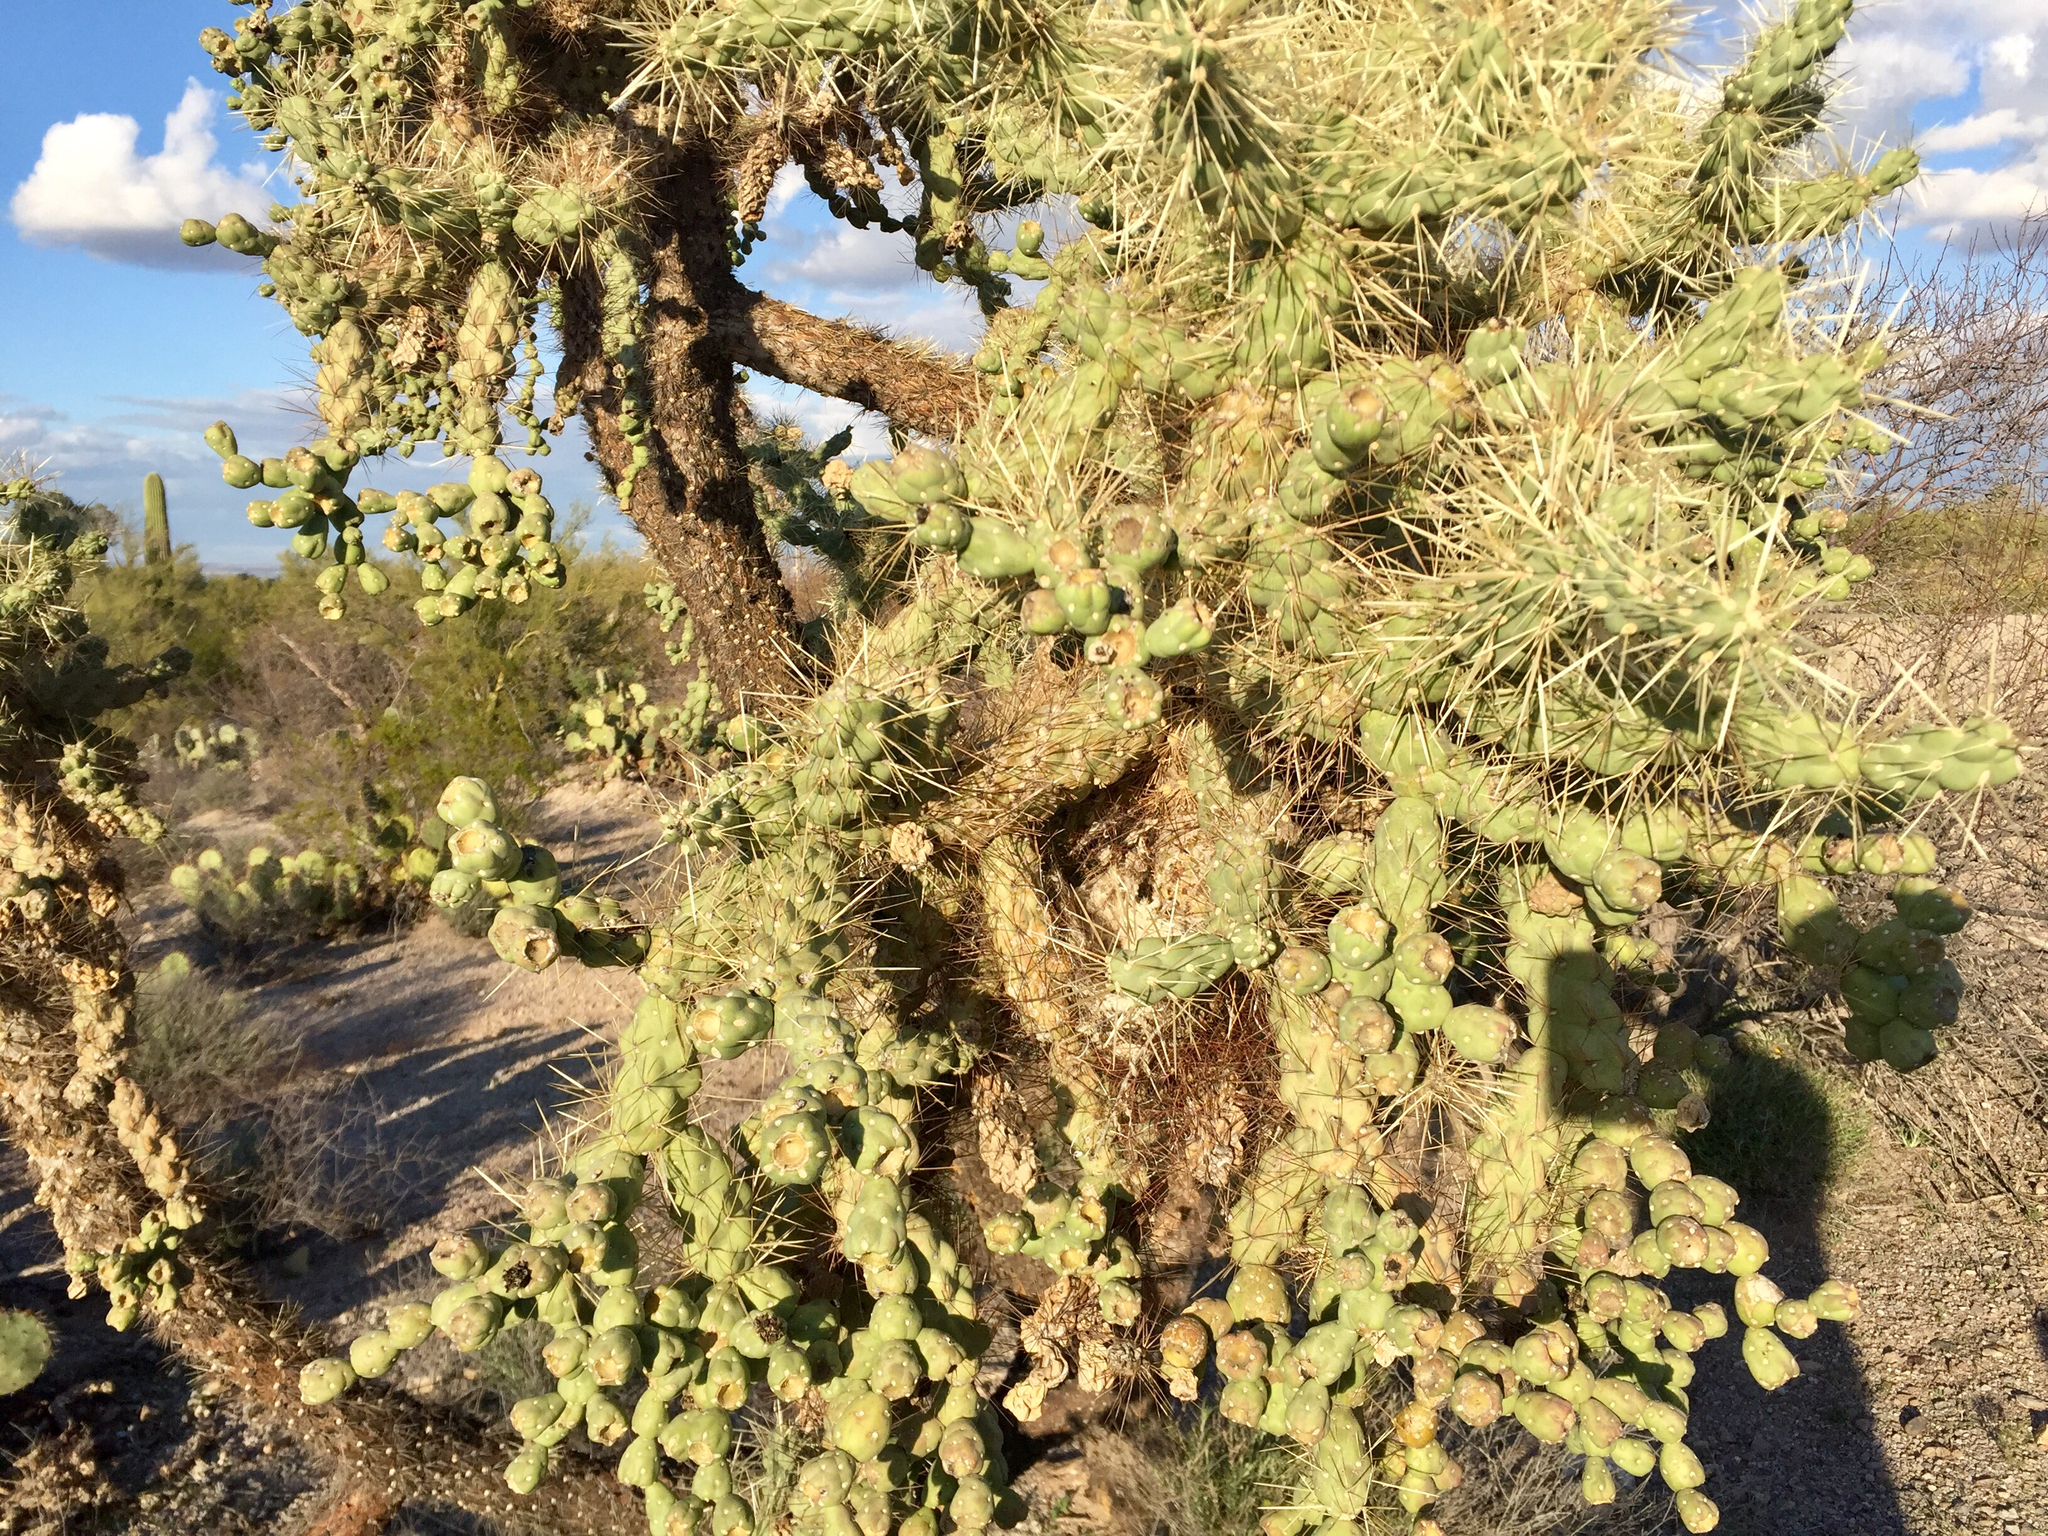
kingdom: Plantae
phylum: Tracheophyta
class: Magnoliopsida
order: Caryophyllales
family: Cactaceae
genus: Cylindropuntia
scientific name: Cylindropuntia fulgida
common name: Jumping cholla
